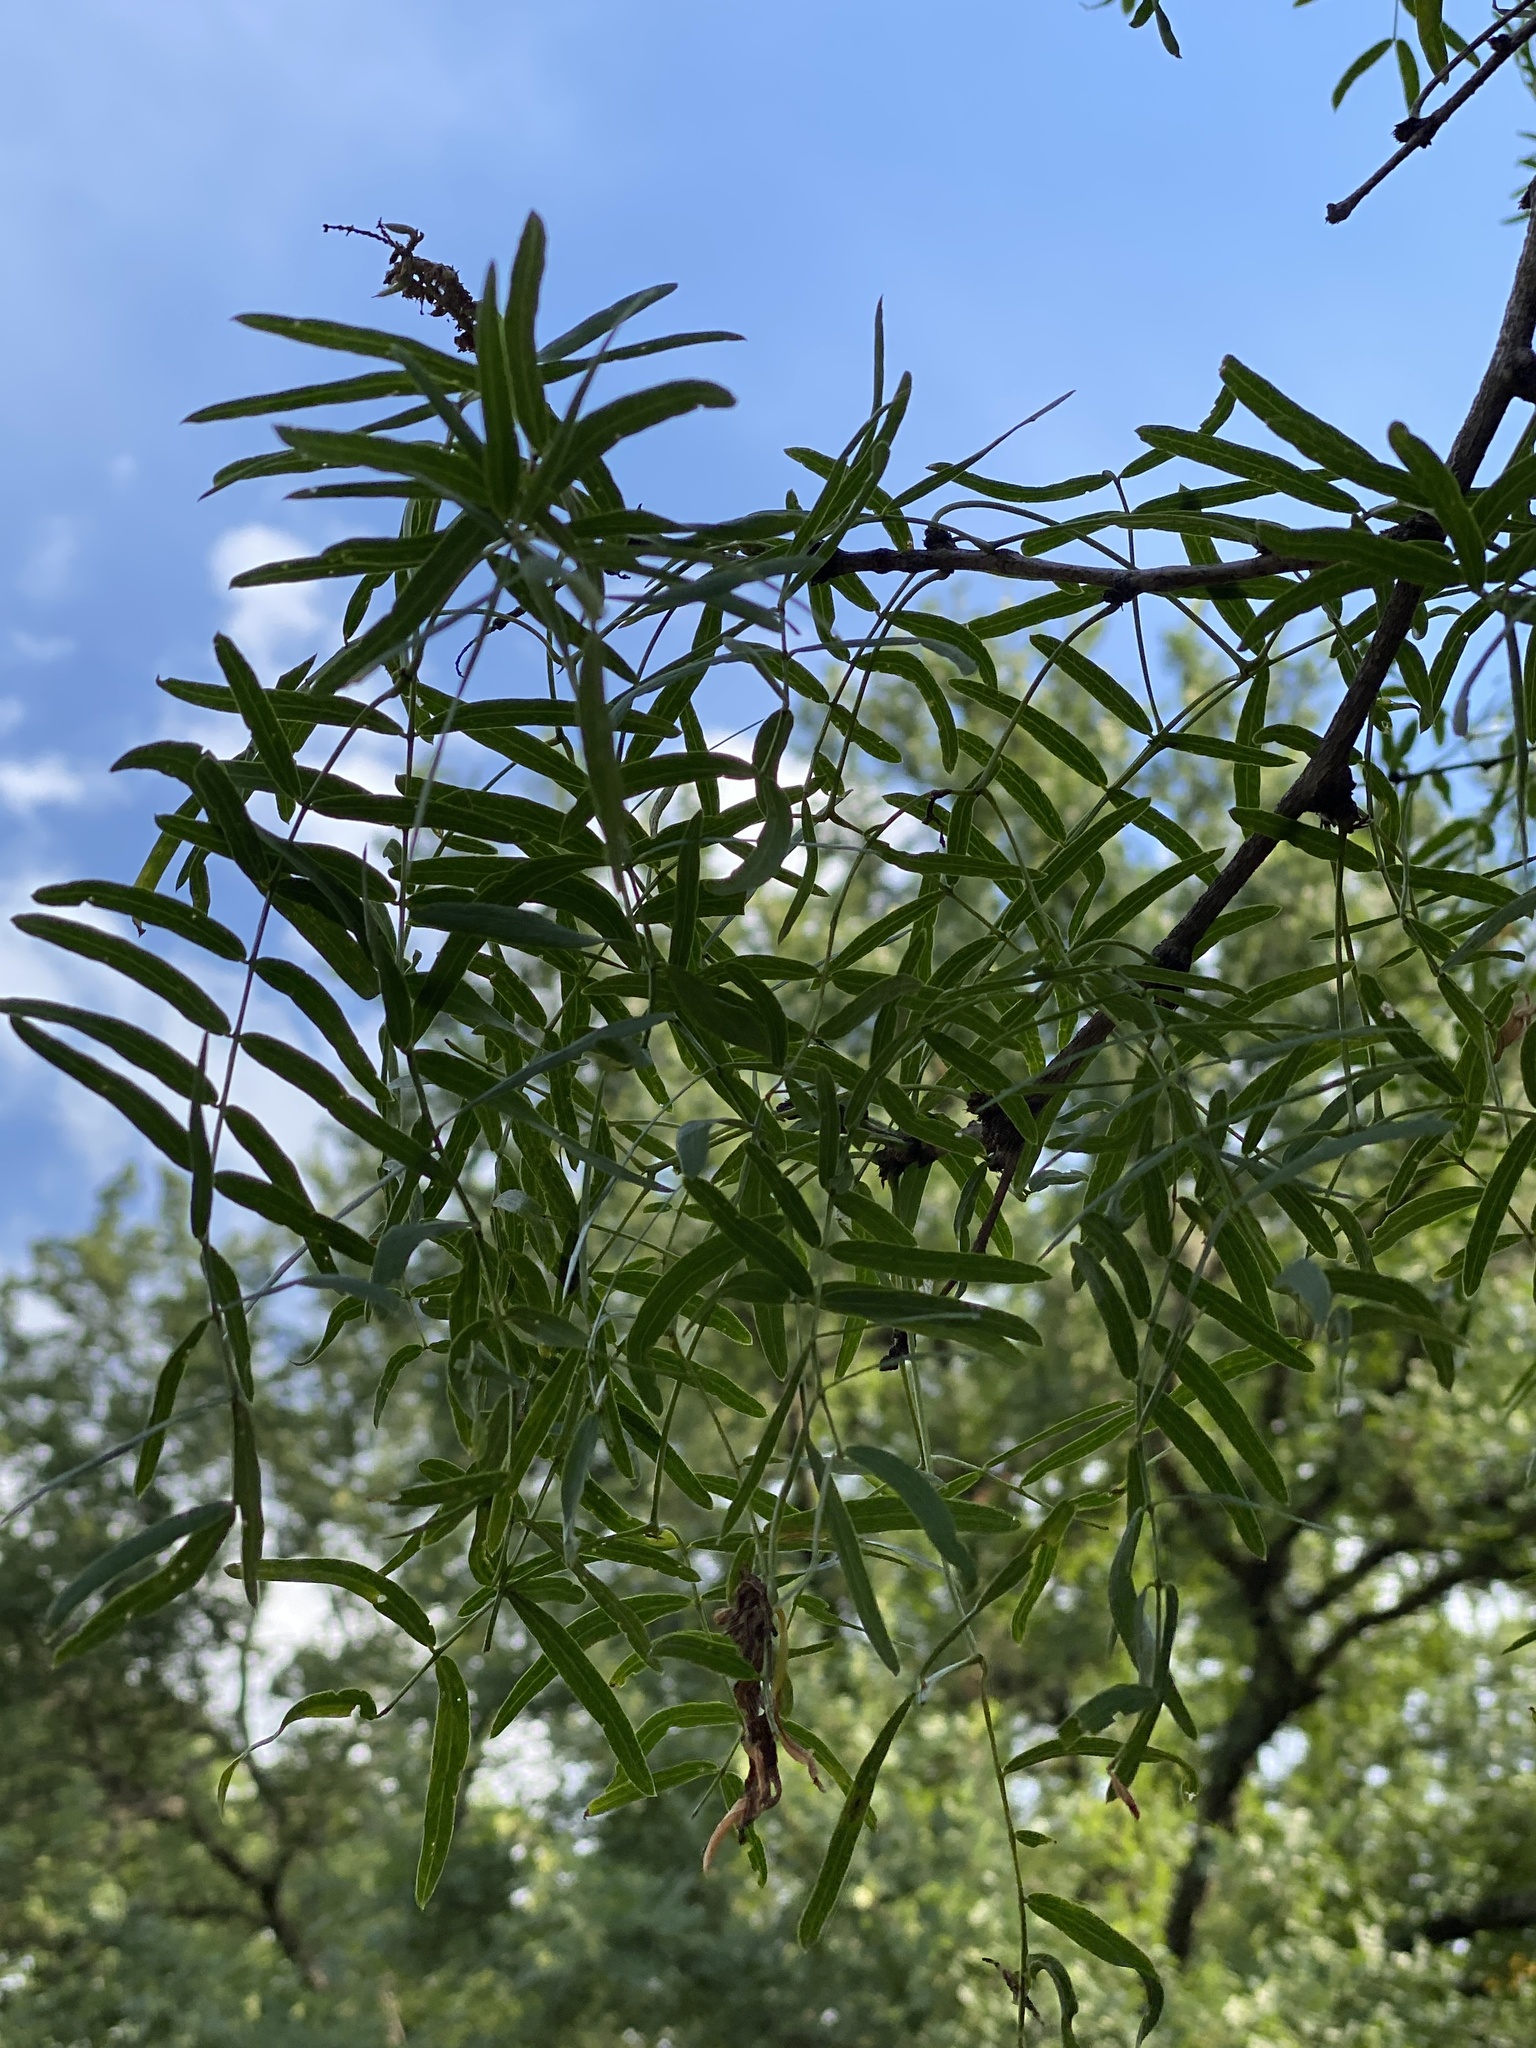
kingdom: Plantae
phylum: Tracheophyta
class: Magnoliopsida
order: Fabales
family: Fabaceae
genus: Prosopis
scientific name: Prosopis glandulosa
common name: Honey mesquite
